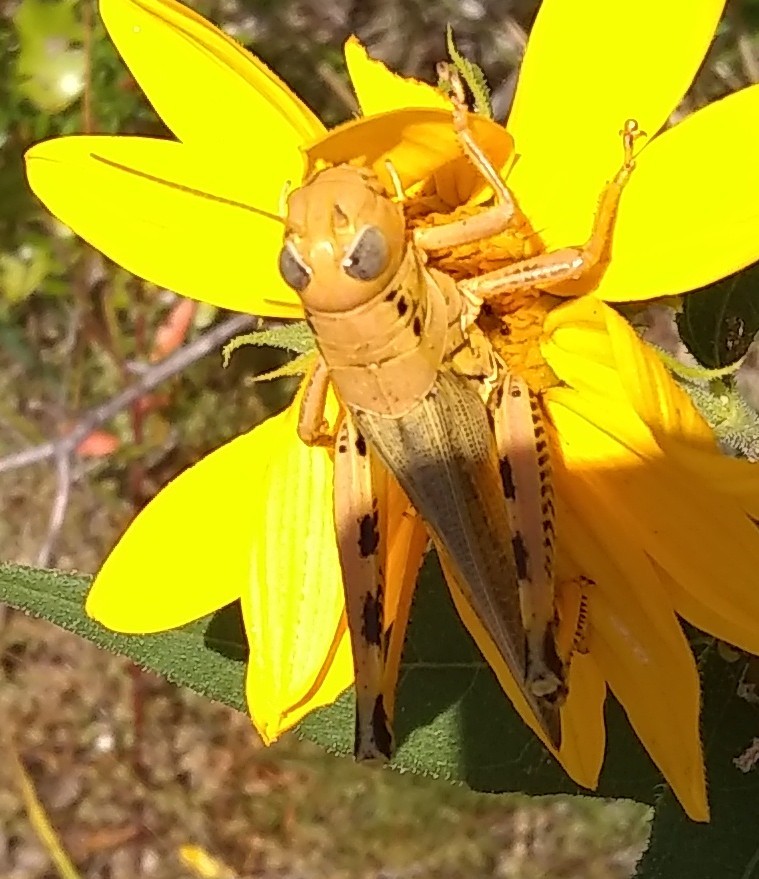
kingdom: Animalia
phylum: Arthropoda
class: Insecta
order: Orthoptera
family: Acrididae
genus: Melanoplus
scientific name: Melanoplus differentialis
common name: Differential grasshopper
